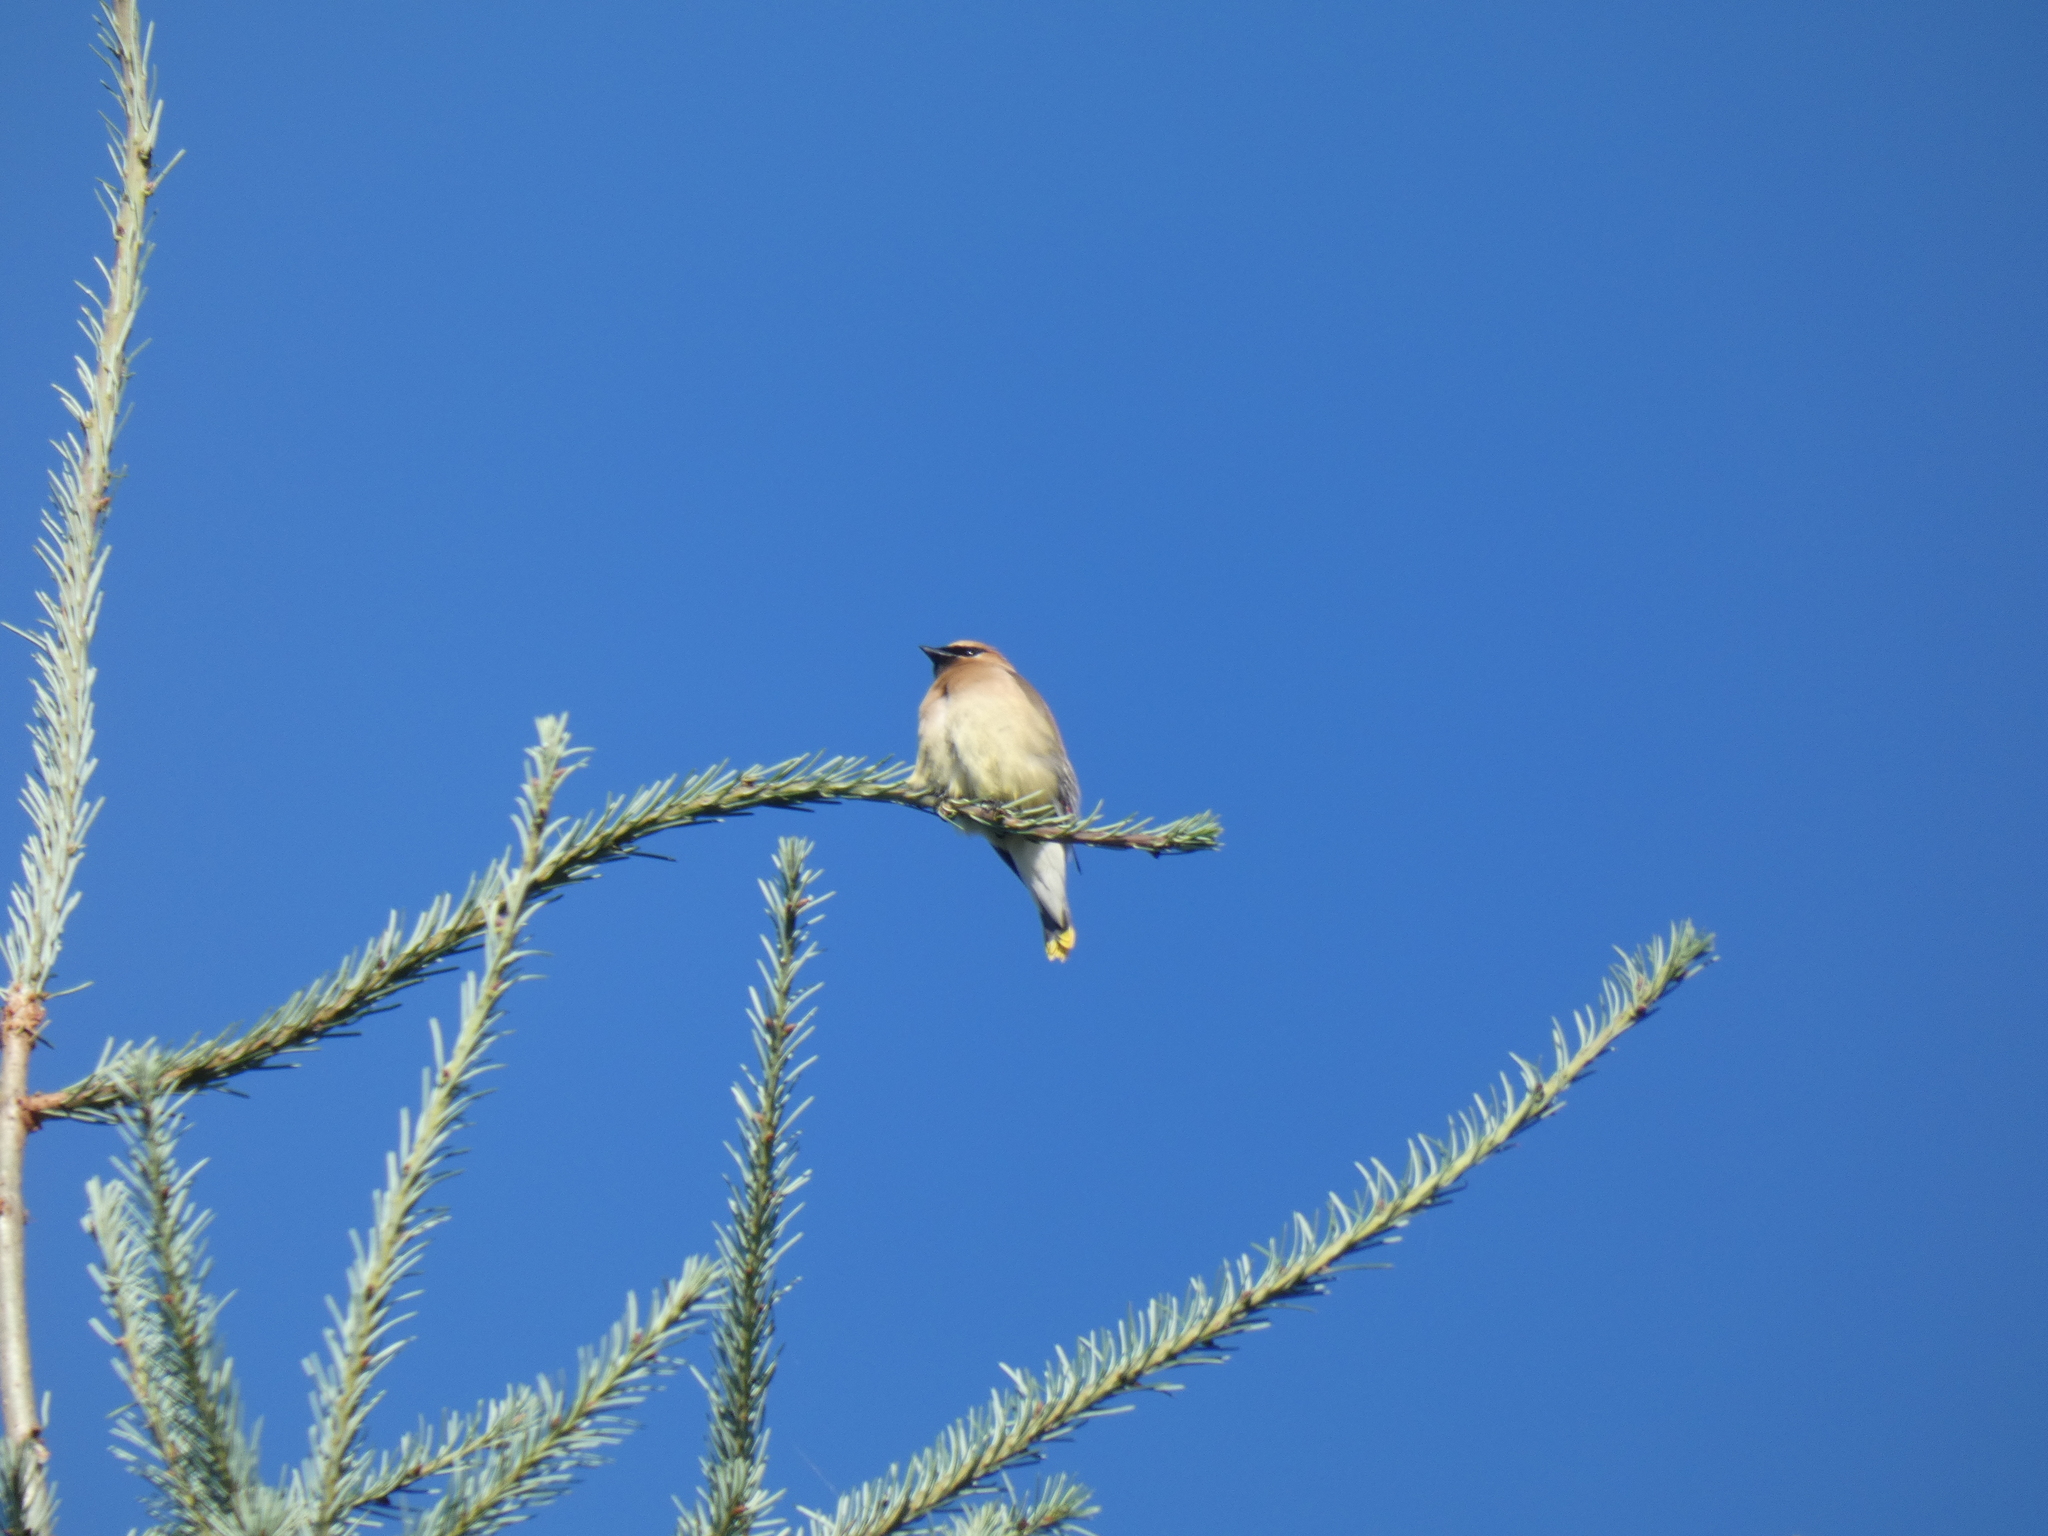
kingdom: Animalia
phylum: Chordata
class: Aves
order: Passeriformes
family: Bombycillidae
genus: Bombycilla
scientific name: Bombycilla cedrorum
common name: Cedar waxwing
